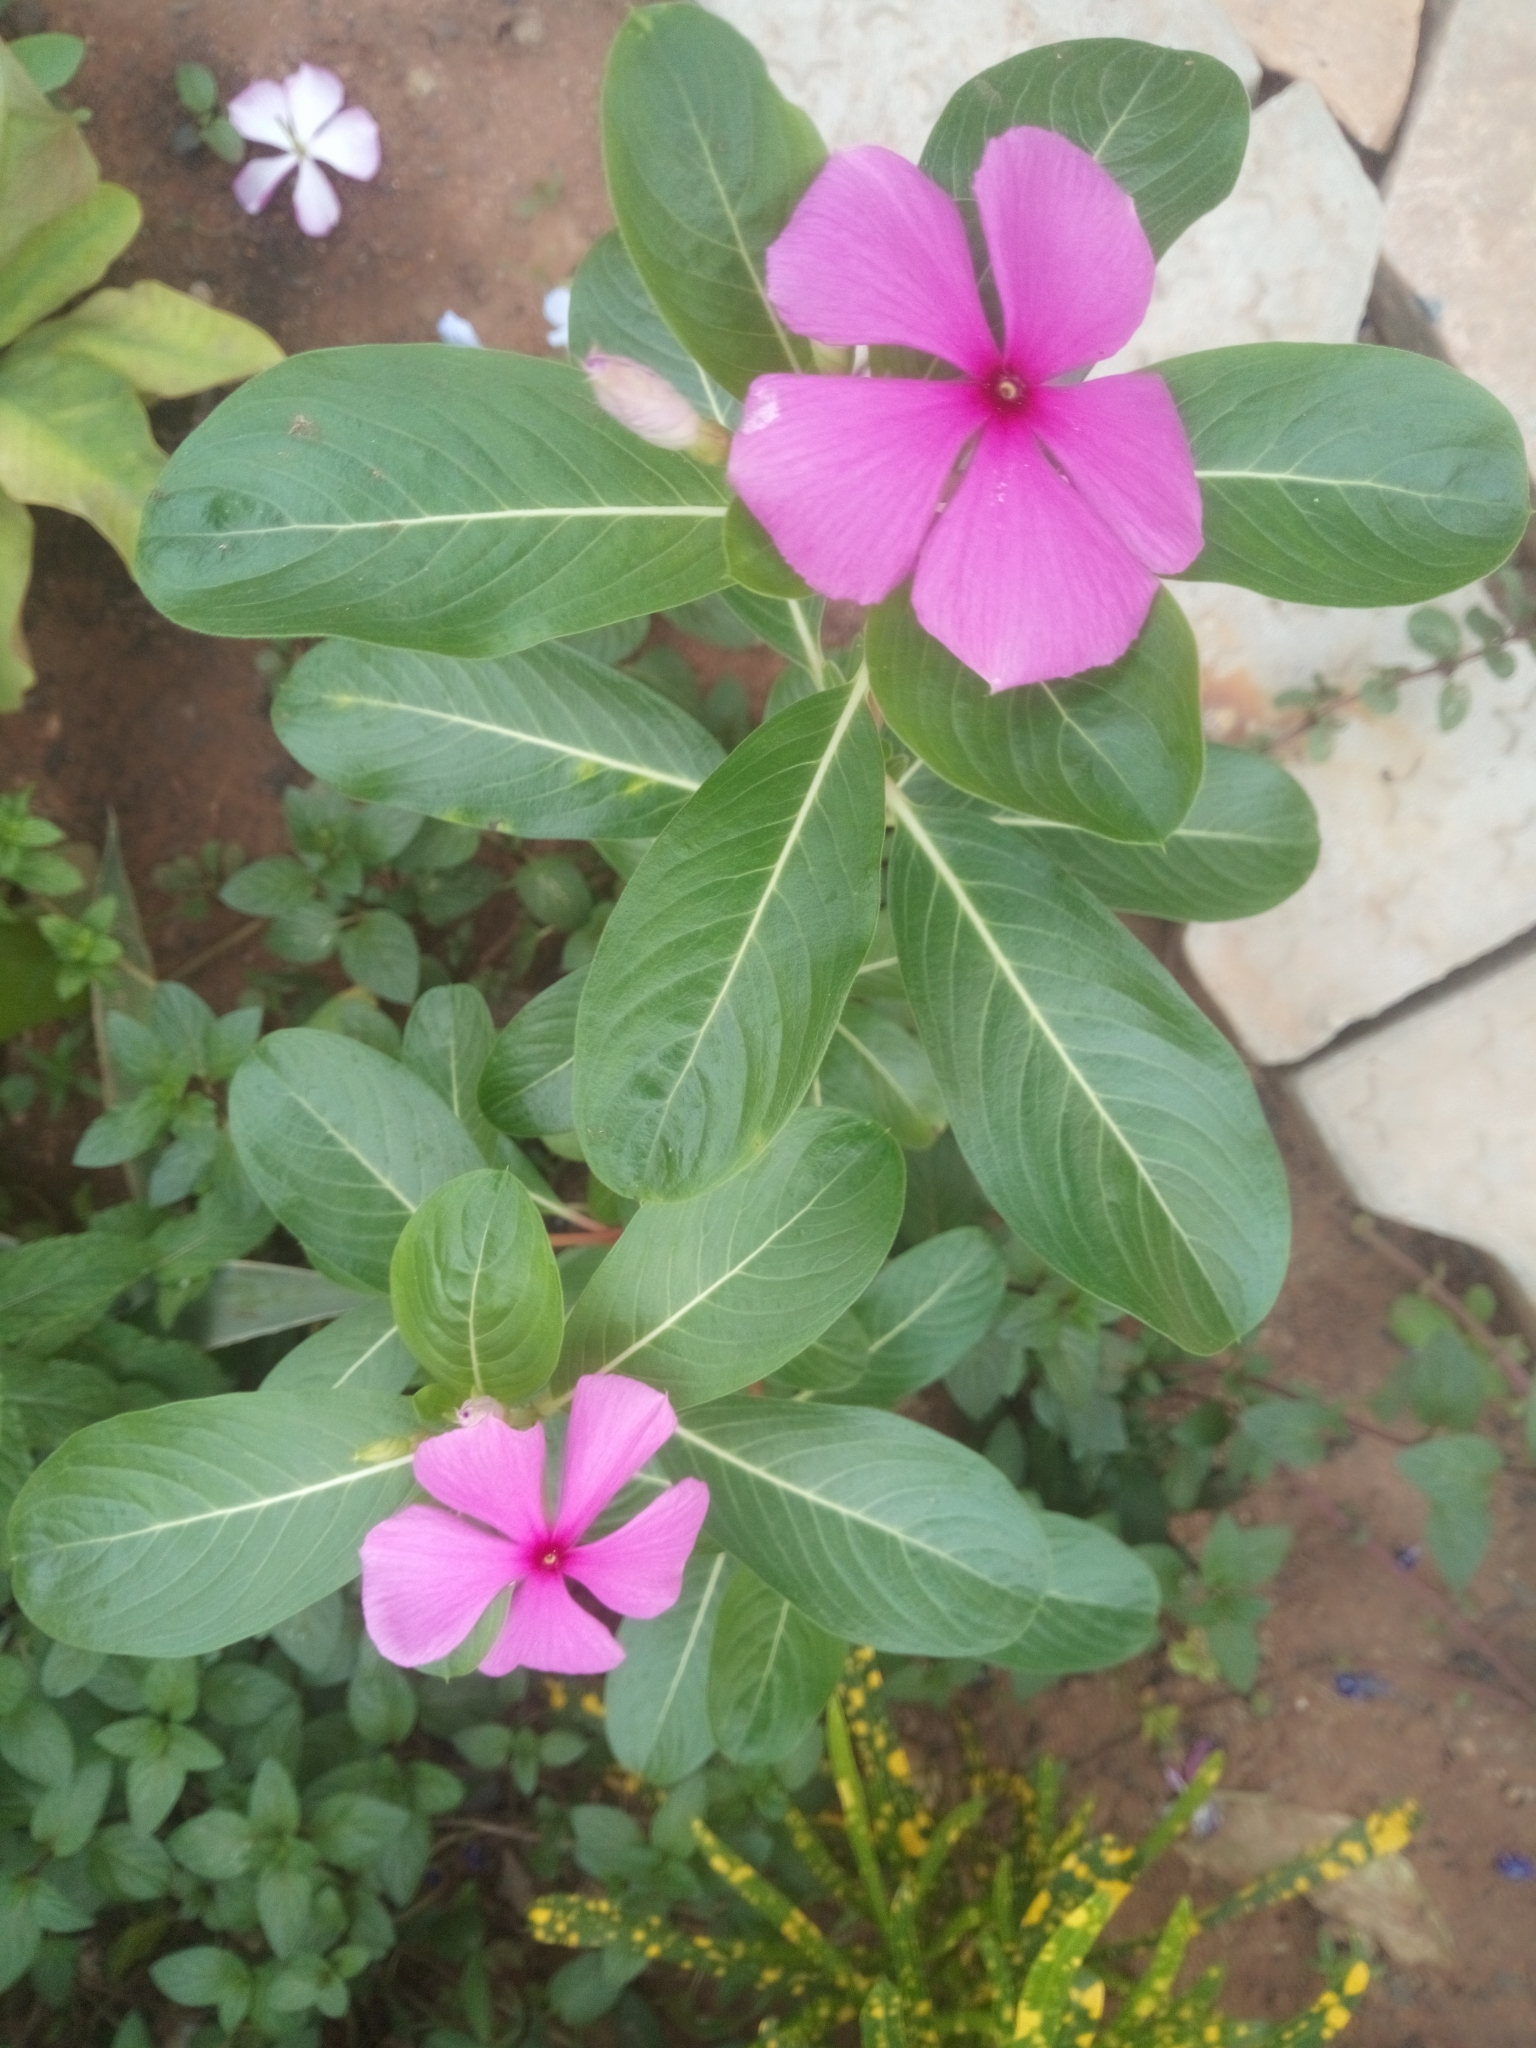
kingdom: Plantae
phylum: Tracheophyta
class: Magnoliopsida
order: Gentianales
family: Apocynaceae
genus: Catharanthus
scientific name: Catharanthus roseus
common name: Madagascar periwinkle
